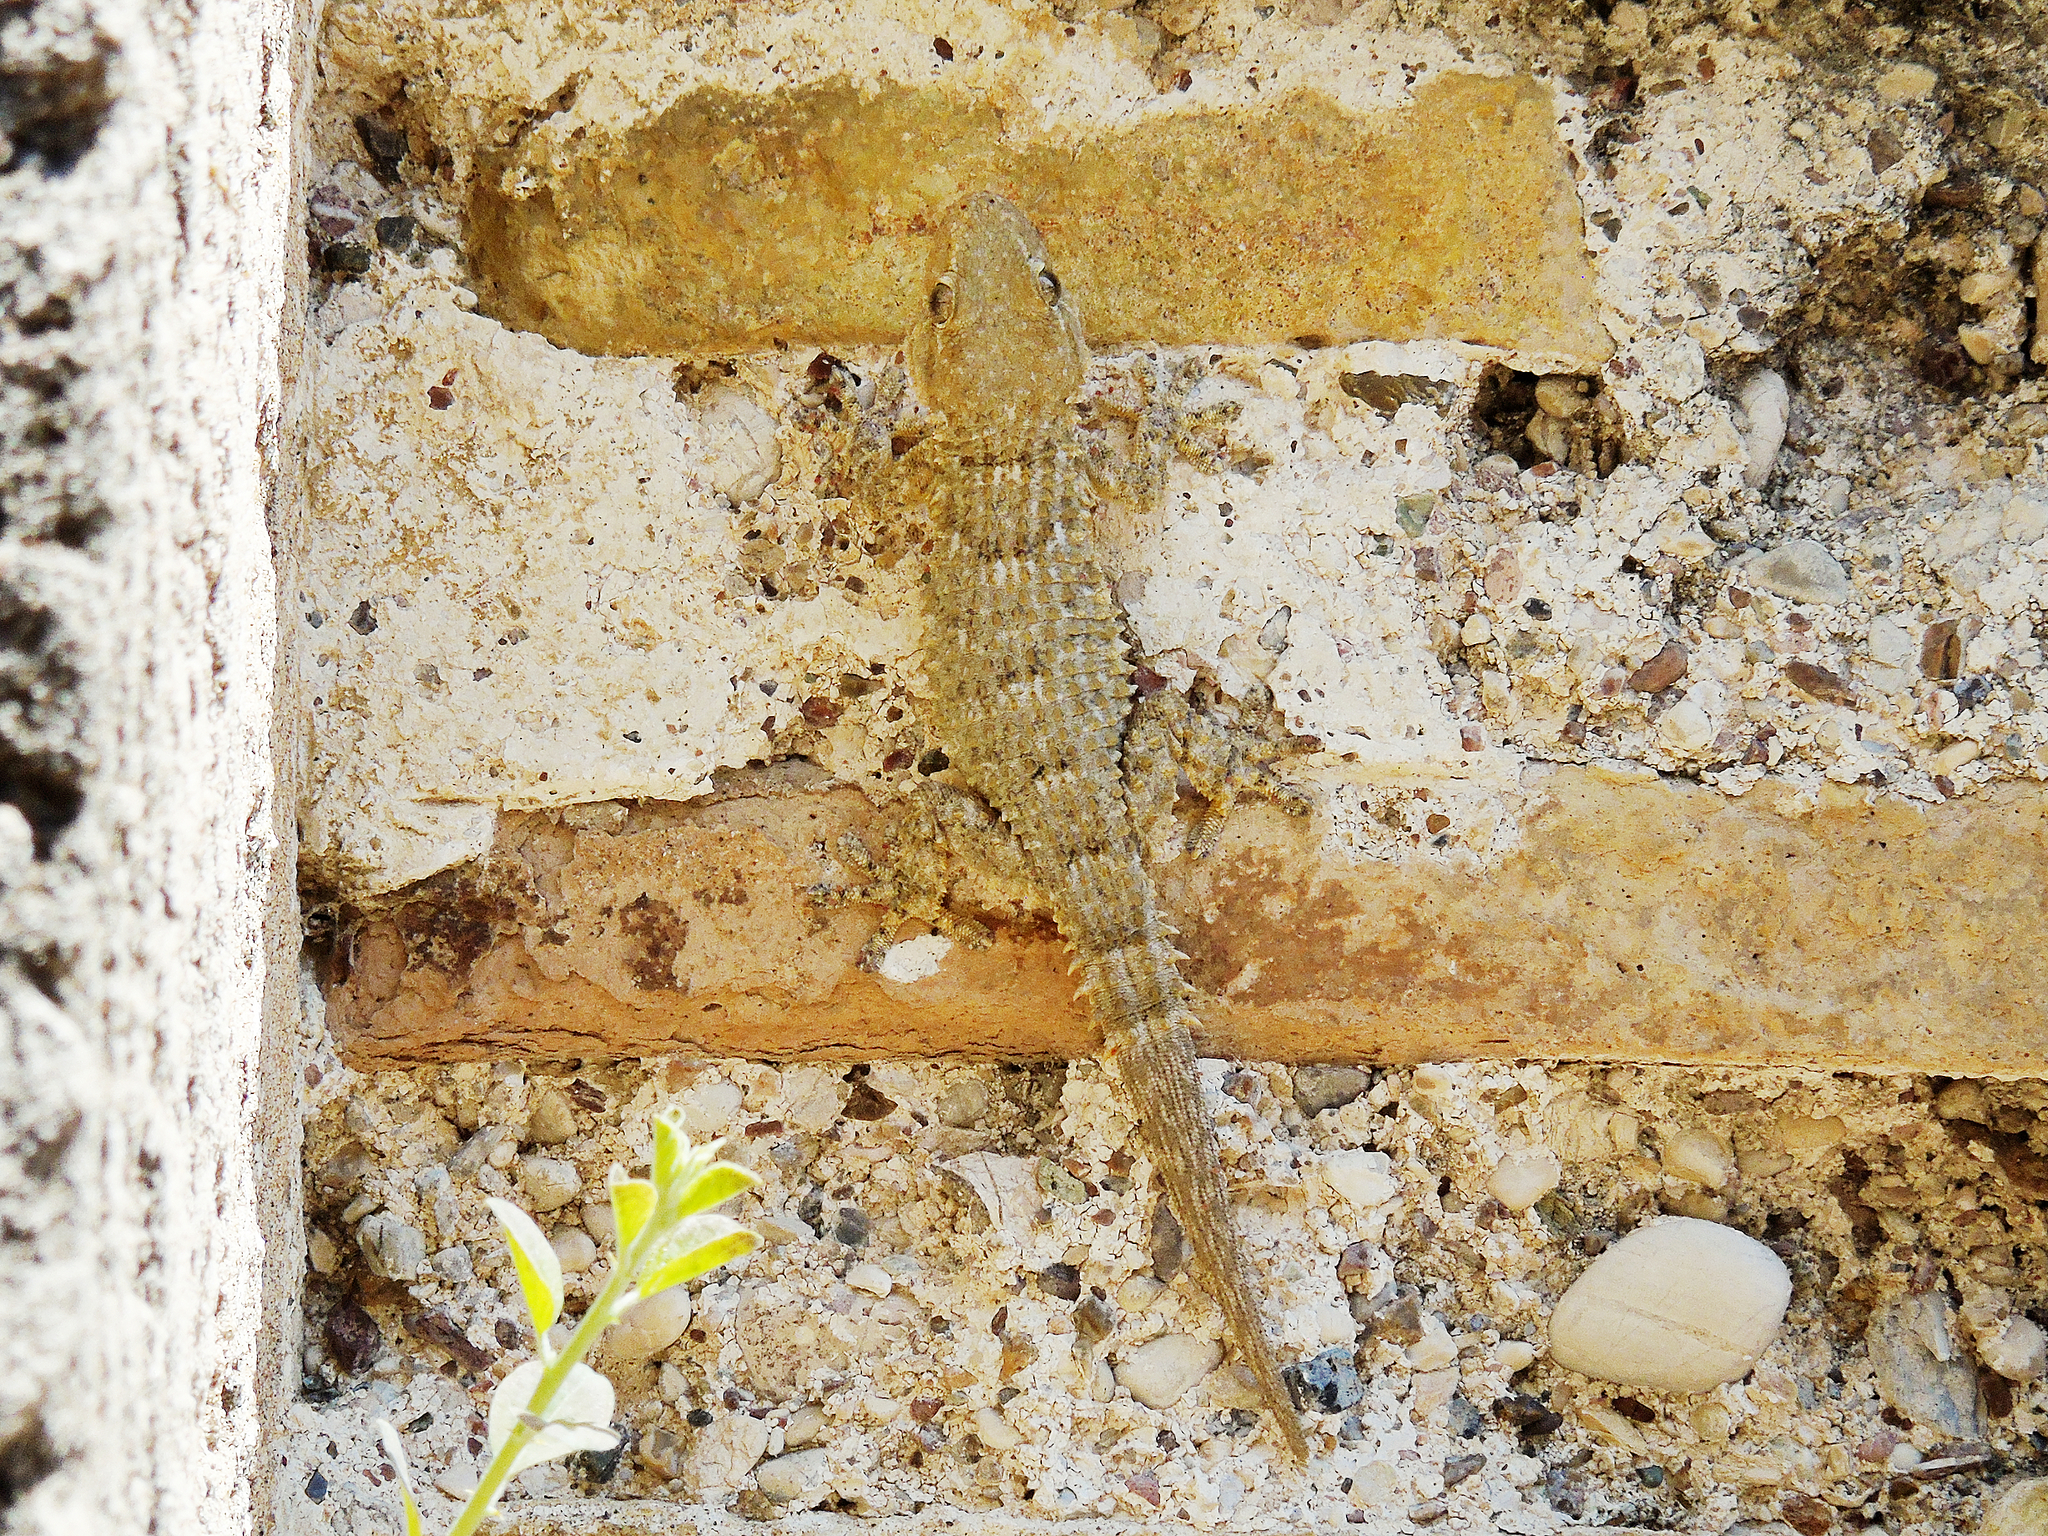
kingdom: Animalia
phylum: Chordata
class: Squamata
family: Phyllodactylidae
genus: Tarentola
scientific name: Tarentola mauritanica
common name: Moorish gecko
